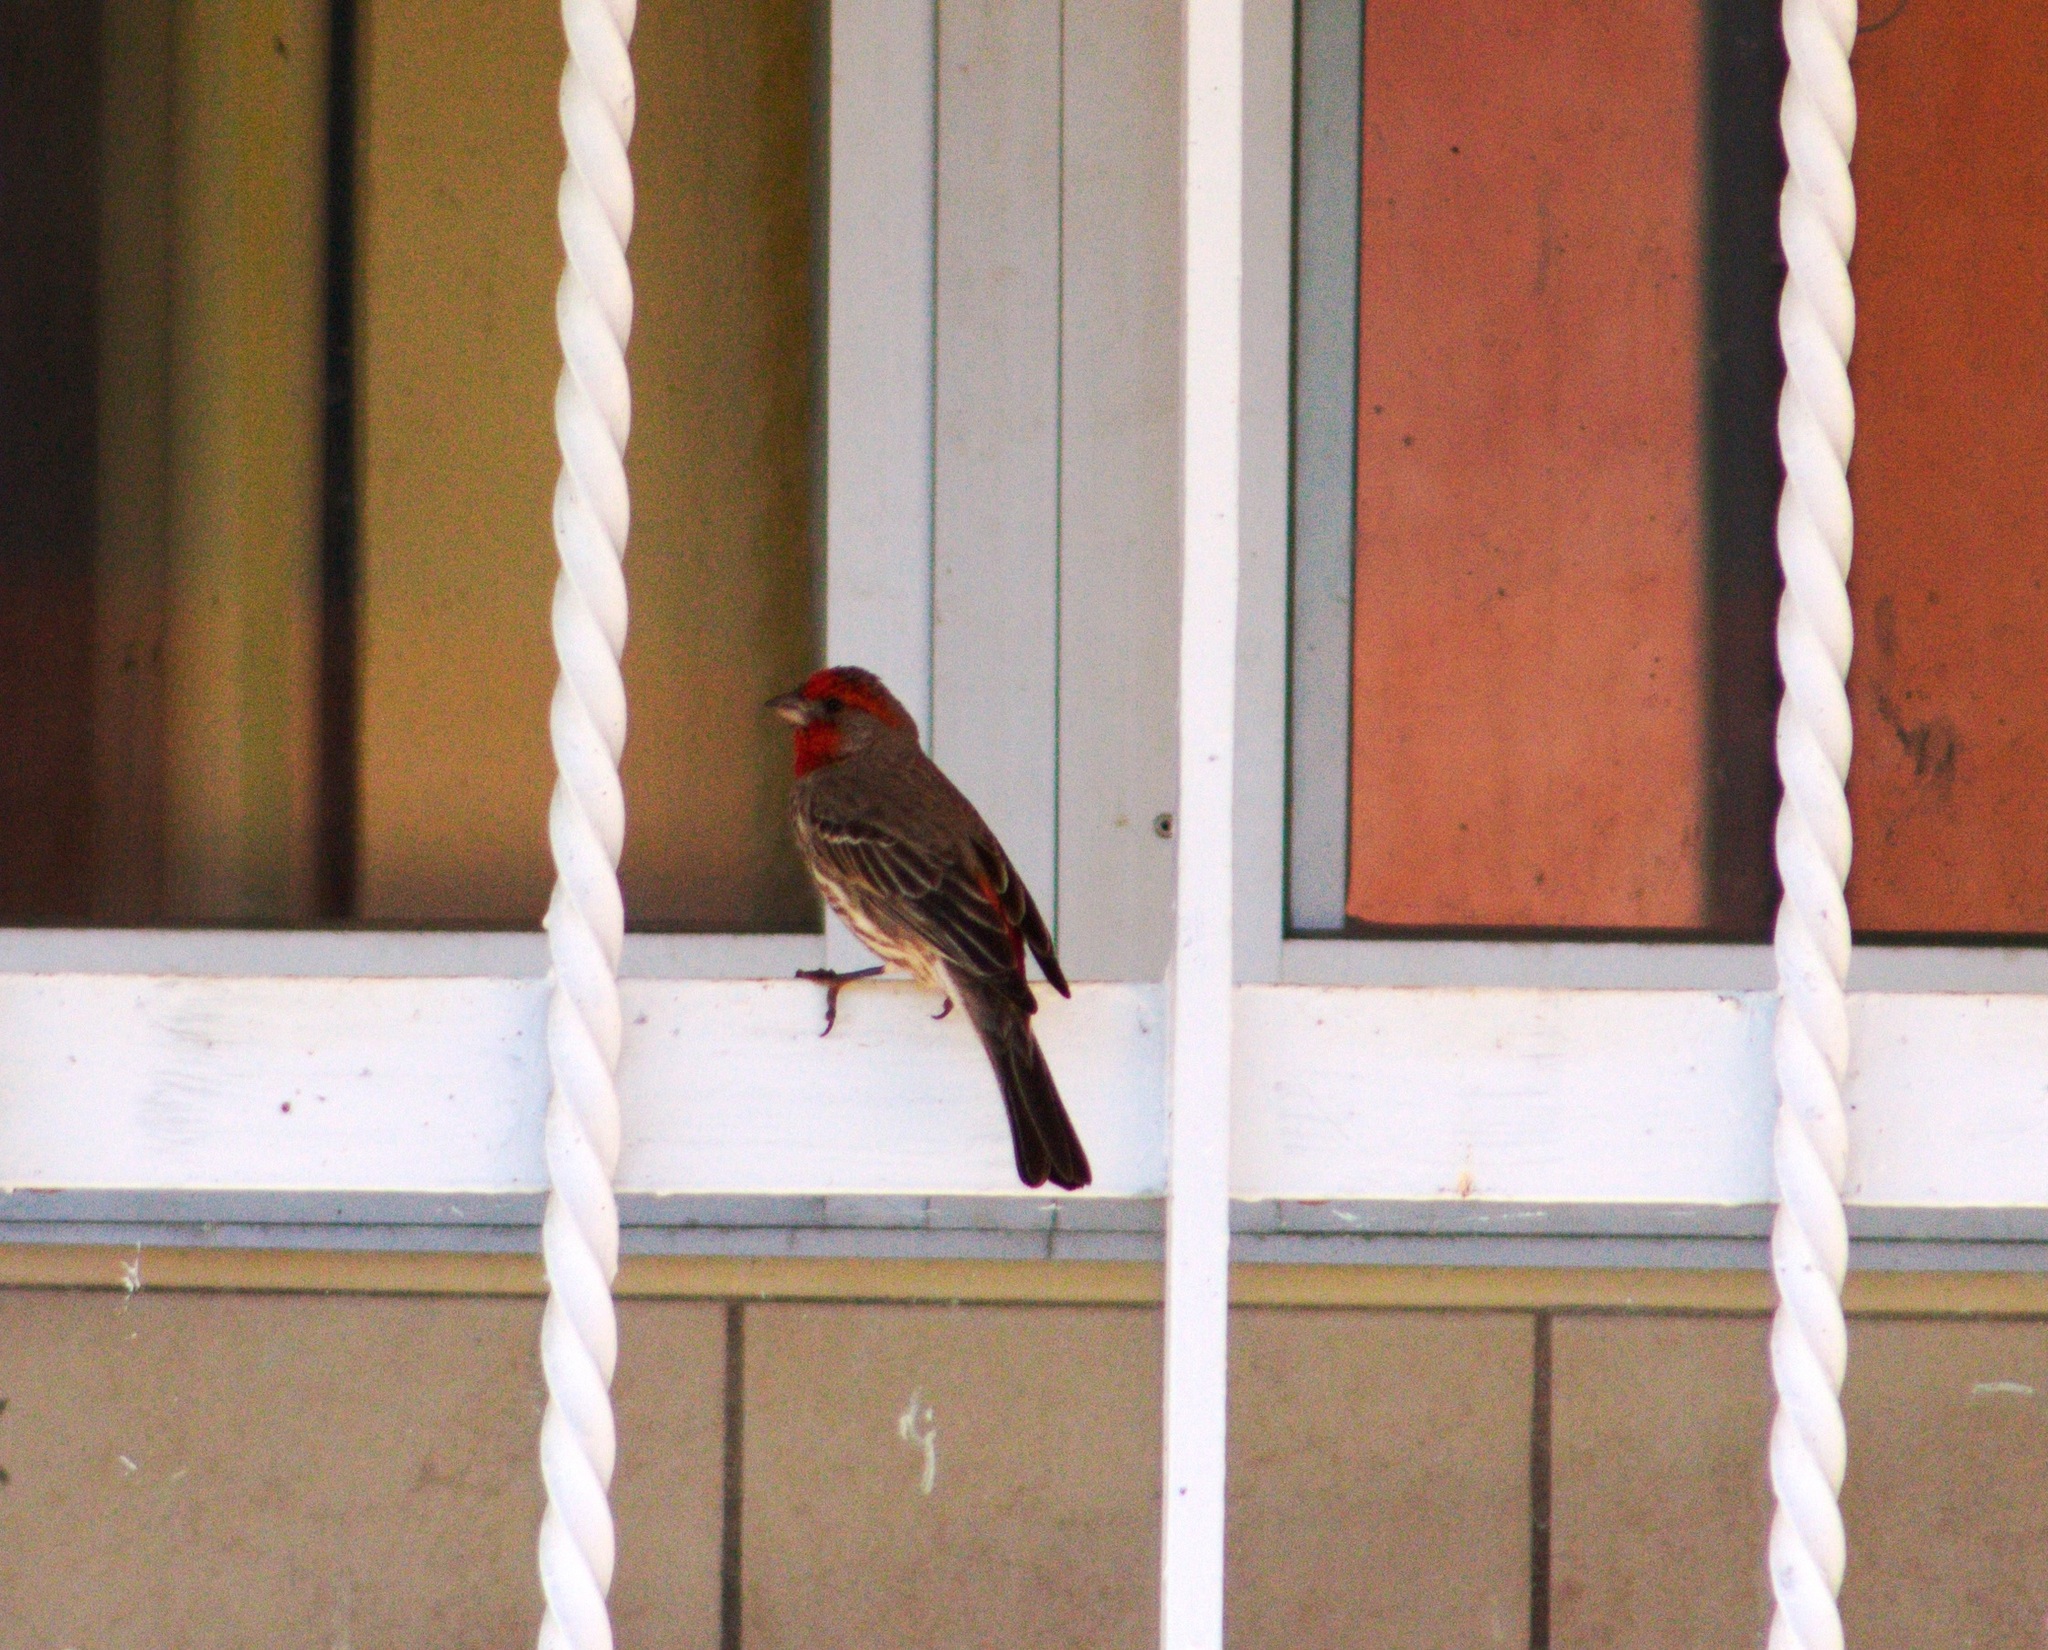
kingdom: Animalia
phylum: Chordata
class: Aves
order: Passeriformes
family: Fringillidae
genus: Haemorhous
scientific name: Haemorhous mexicanus
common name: House finch
